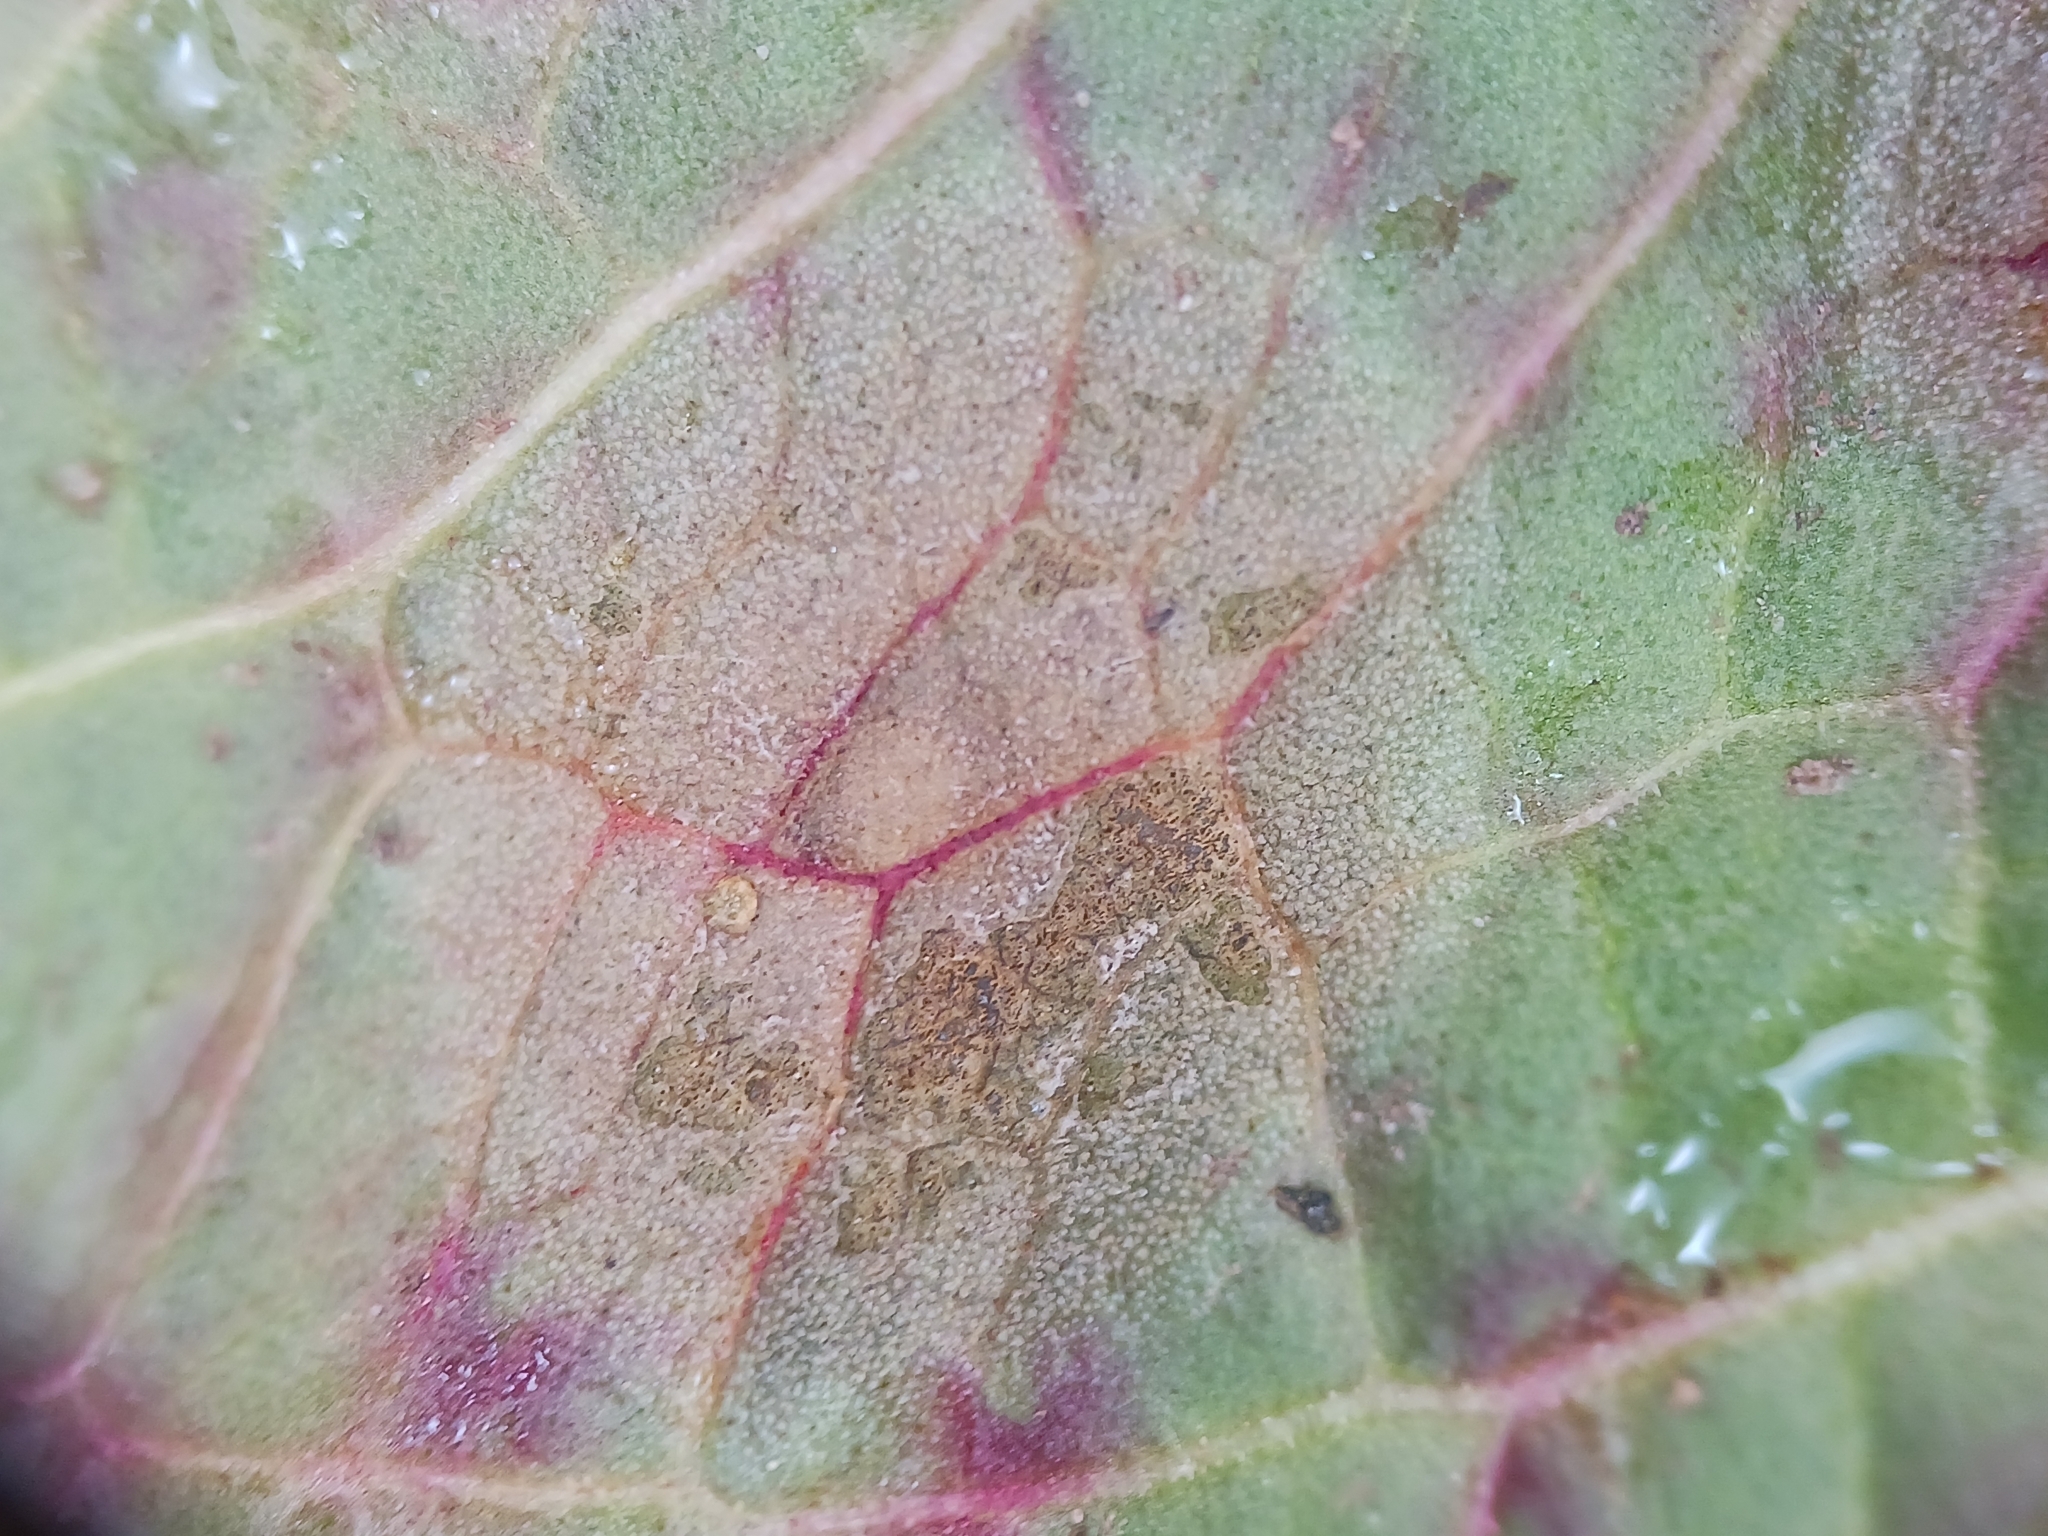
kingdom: Fungi
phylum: Ascomycota
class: Dothideomycetes
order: Mycosphaerellales
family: Mycosphaerellaceae
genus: Ramularia
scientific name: Ramularia rubella
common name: Red dock spot
